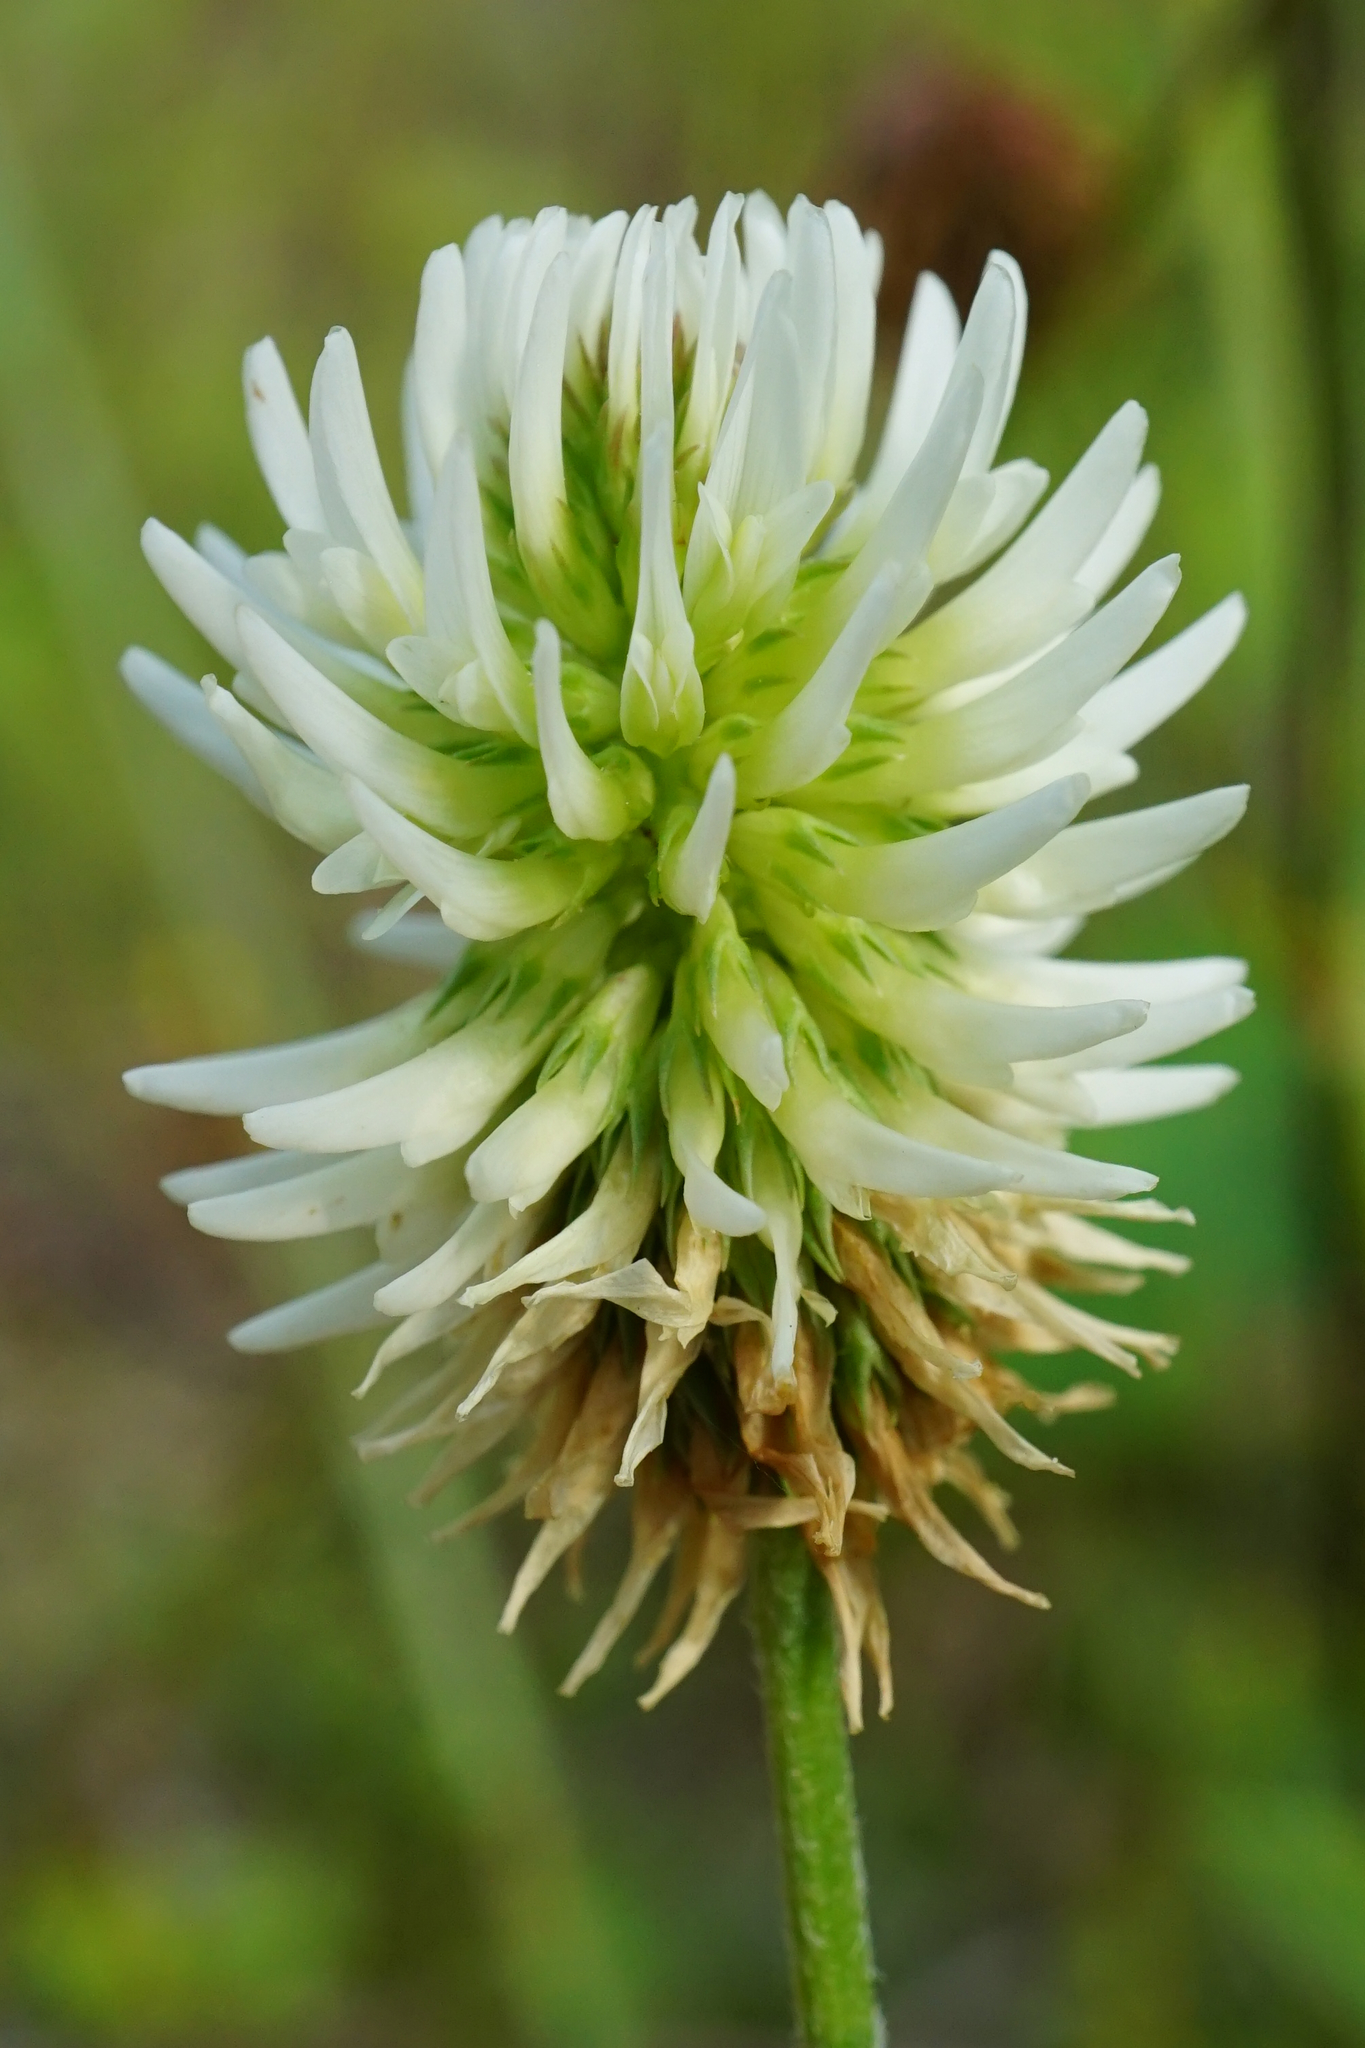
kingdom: Plantae
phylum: Tracheophyta
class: Magnoliopsida
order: Fabales
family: Fabaceae
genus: Trifolium
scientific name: Trifolium montanum
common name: Mountain clover
